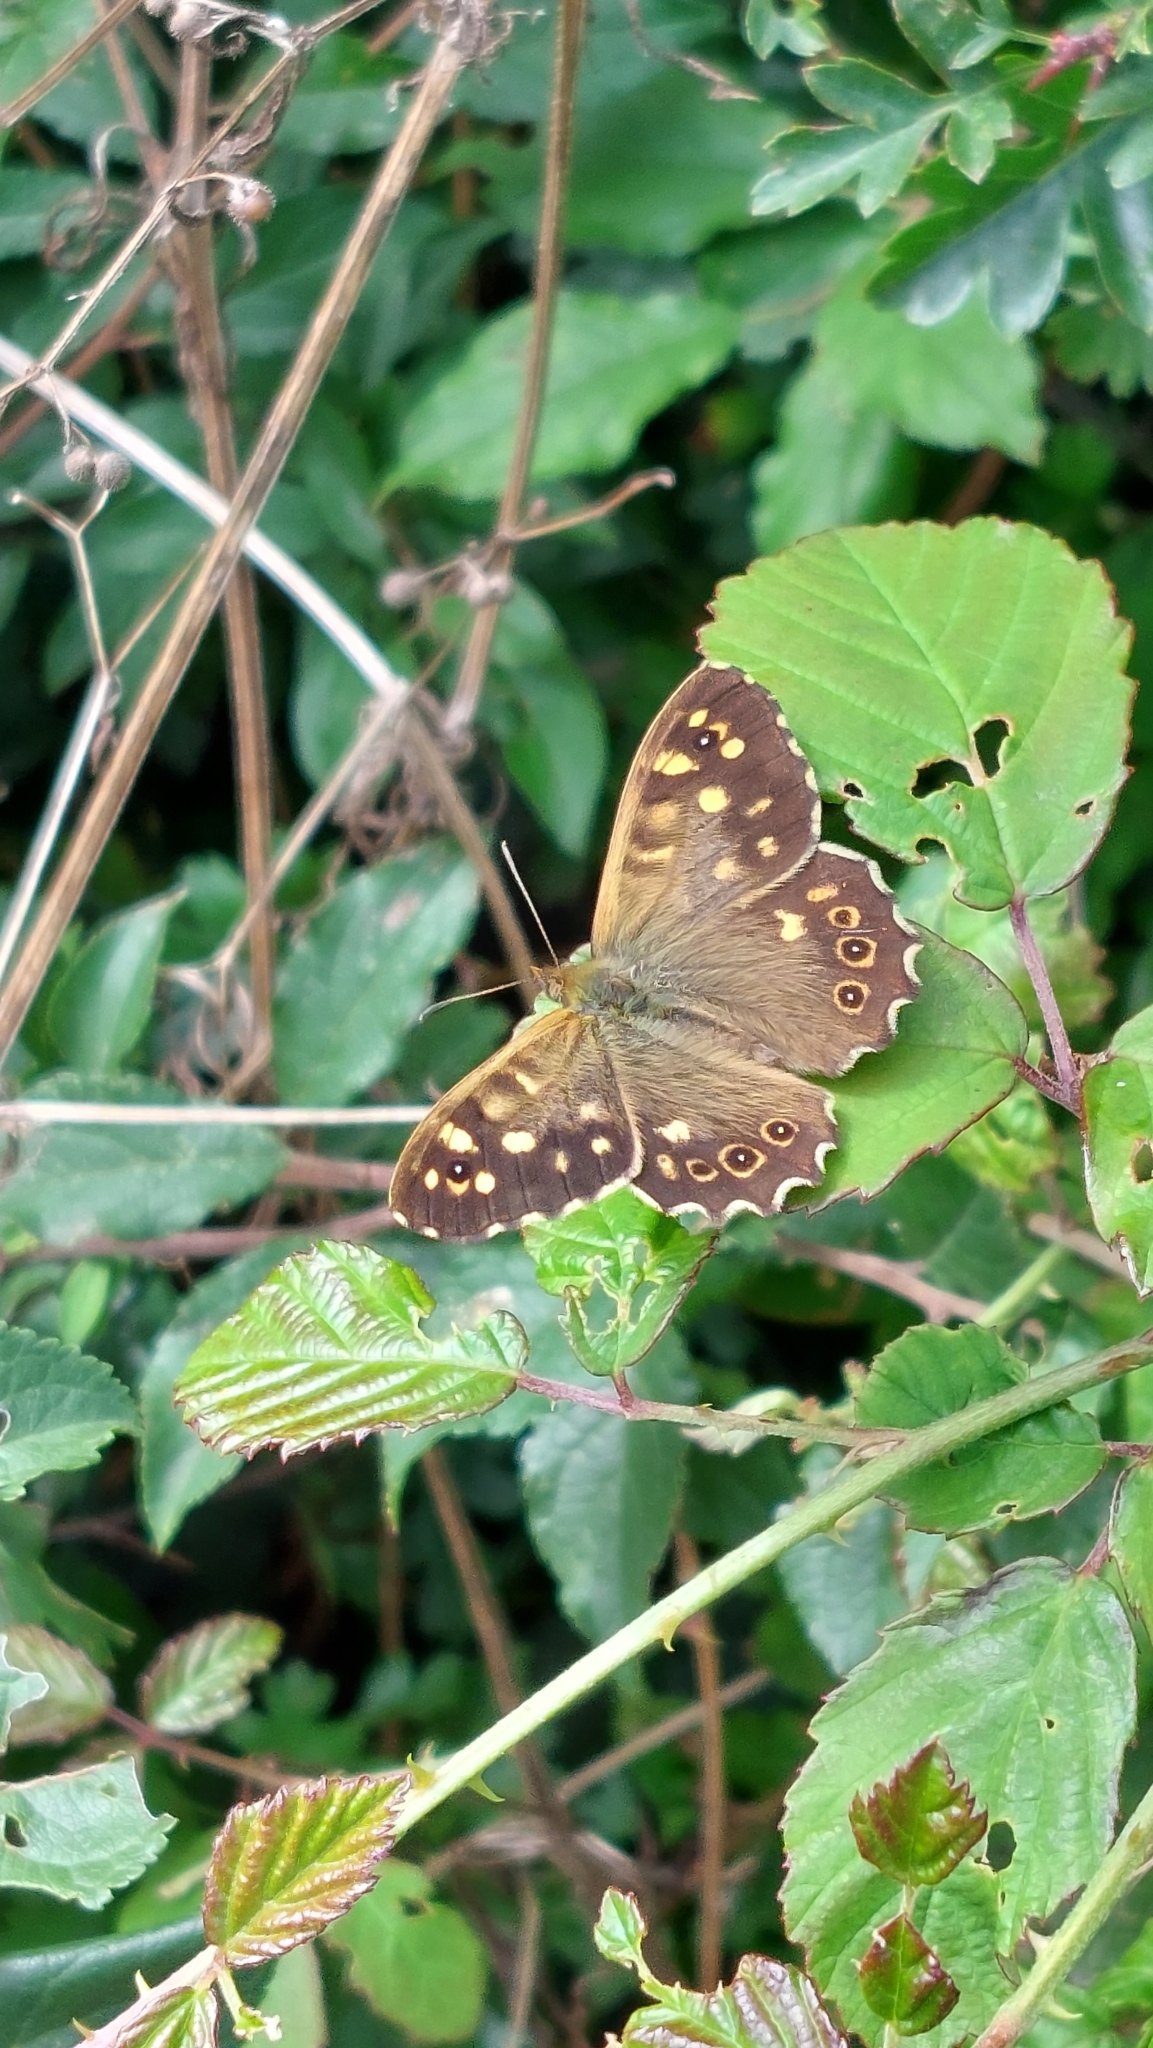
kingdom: Animalia
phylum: Arthropoda
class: Insecta
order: Lepidoptera
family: Nymphalidae
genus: Pararge
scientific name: Pararge aegeria
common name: Speckled wood
